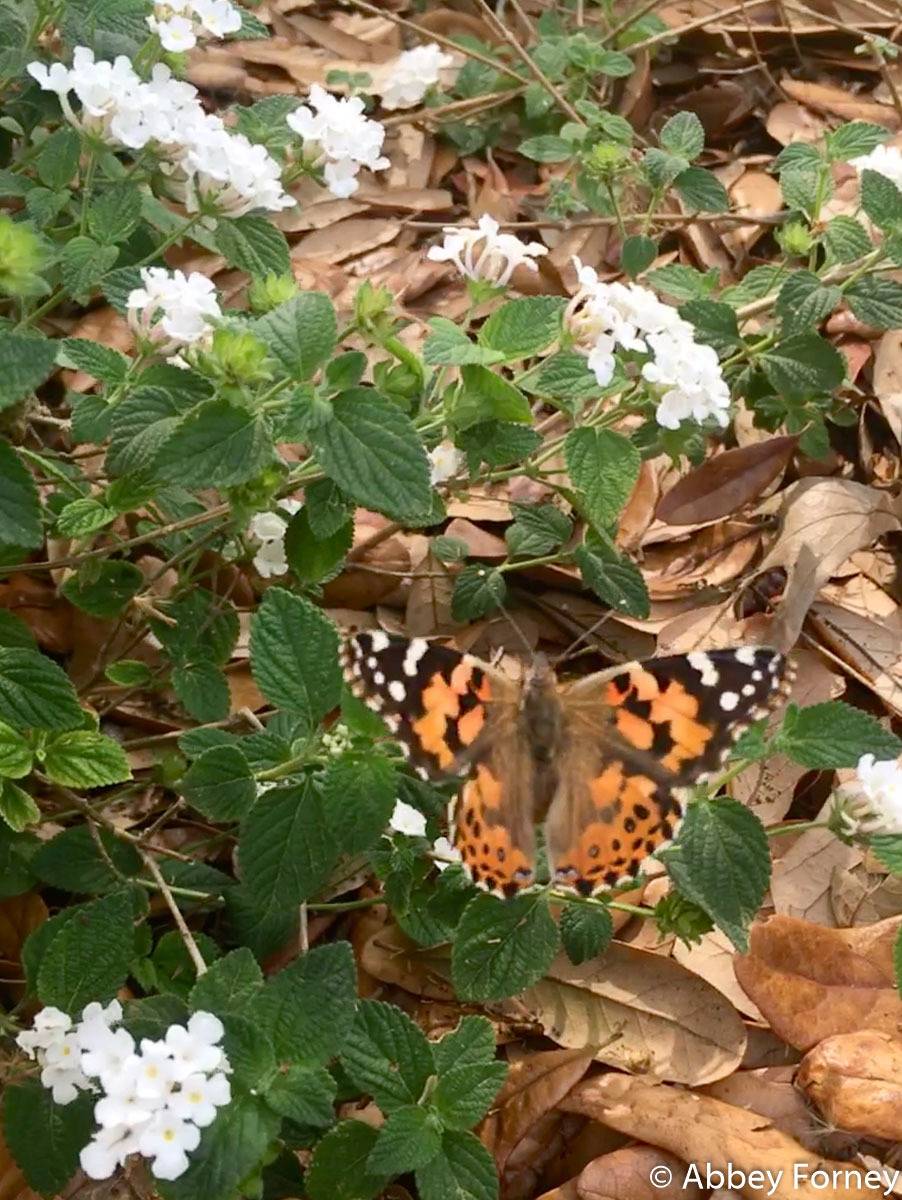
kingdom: Animalia
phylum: Arthropoda
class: Insecta
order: Lepidoptera
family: Nymphalidae
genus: Vanessa
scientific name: Vanessa cardui
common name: Painted lady
